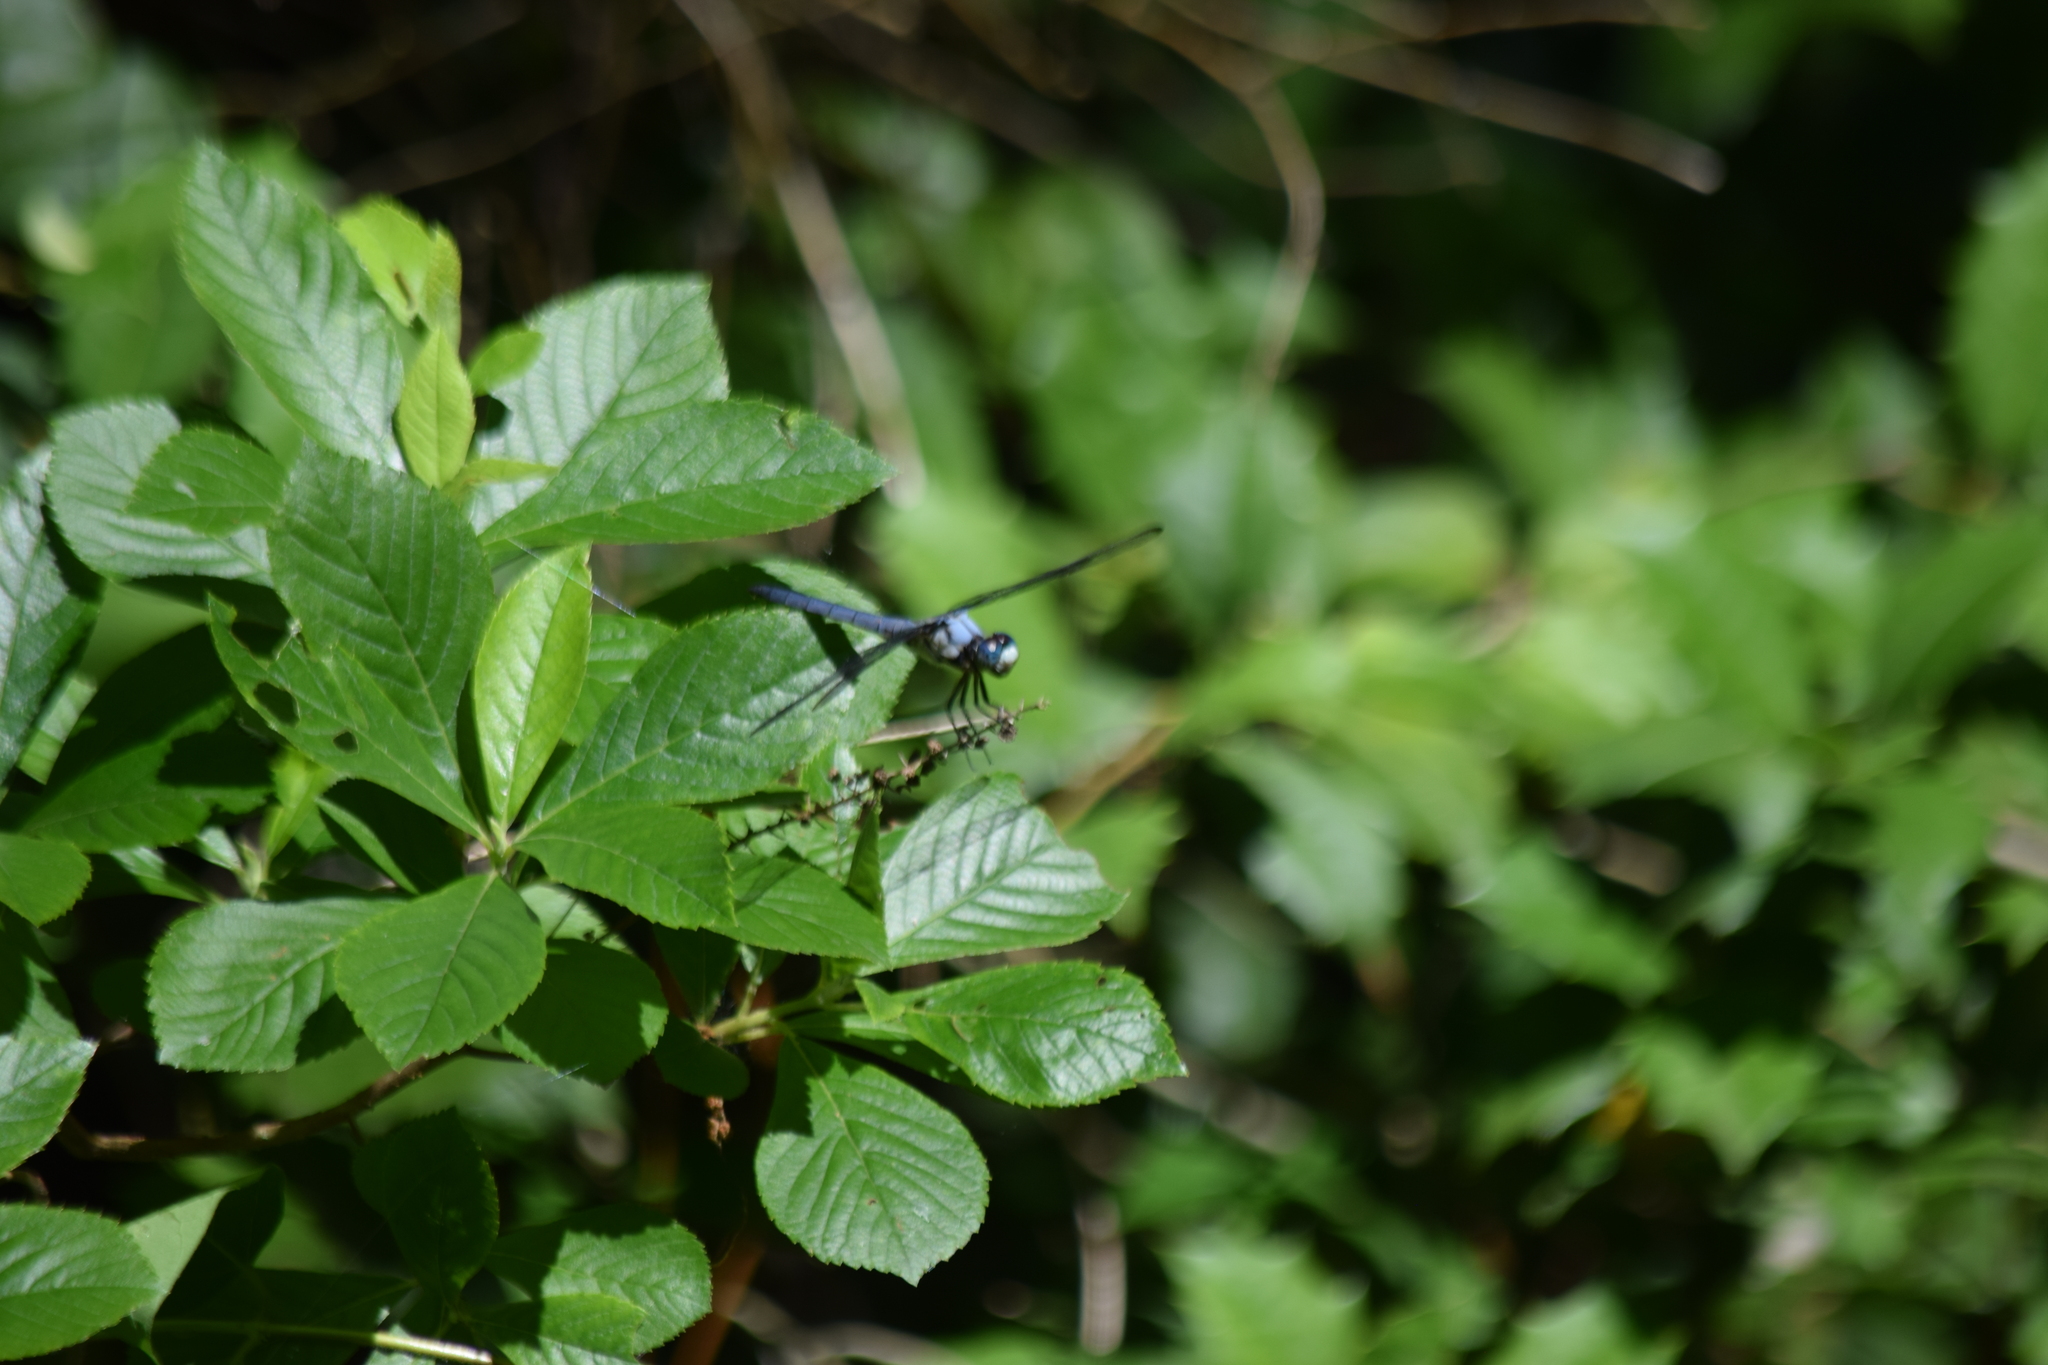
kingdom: Animalia
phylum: Arthropoda
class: Insecta
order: Odonata
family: Libellulidae
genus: Libellula
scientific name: Libellula vibrans
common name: Great blue skimmer
